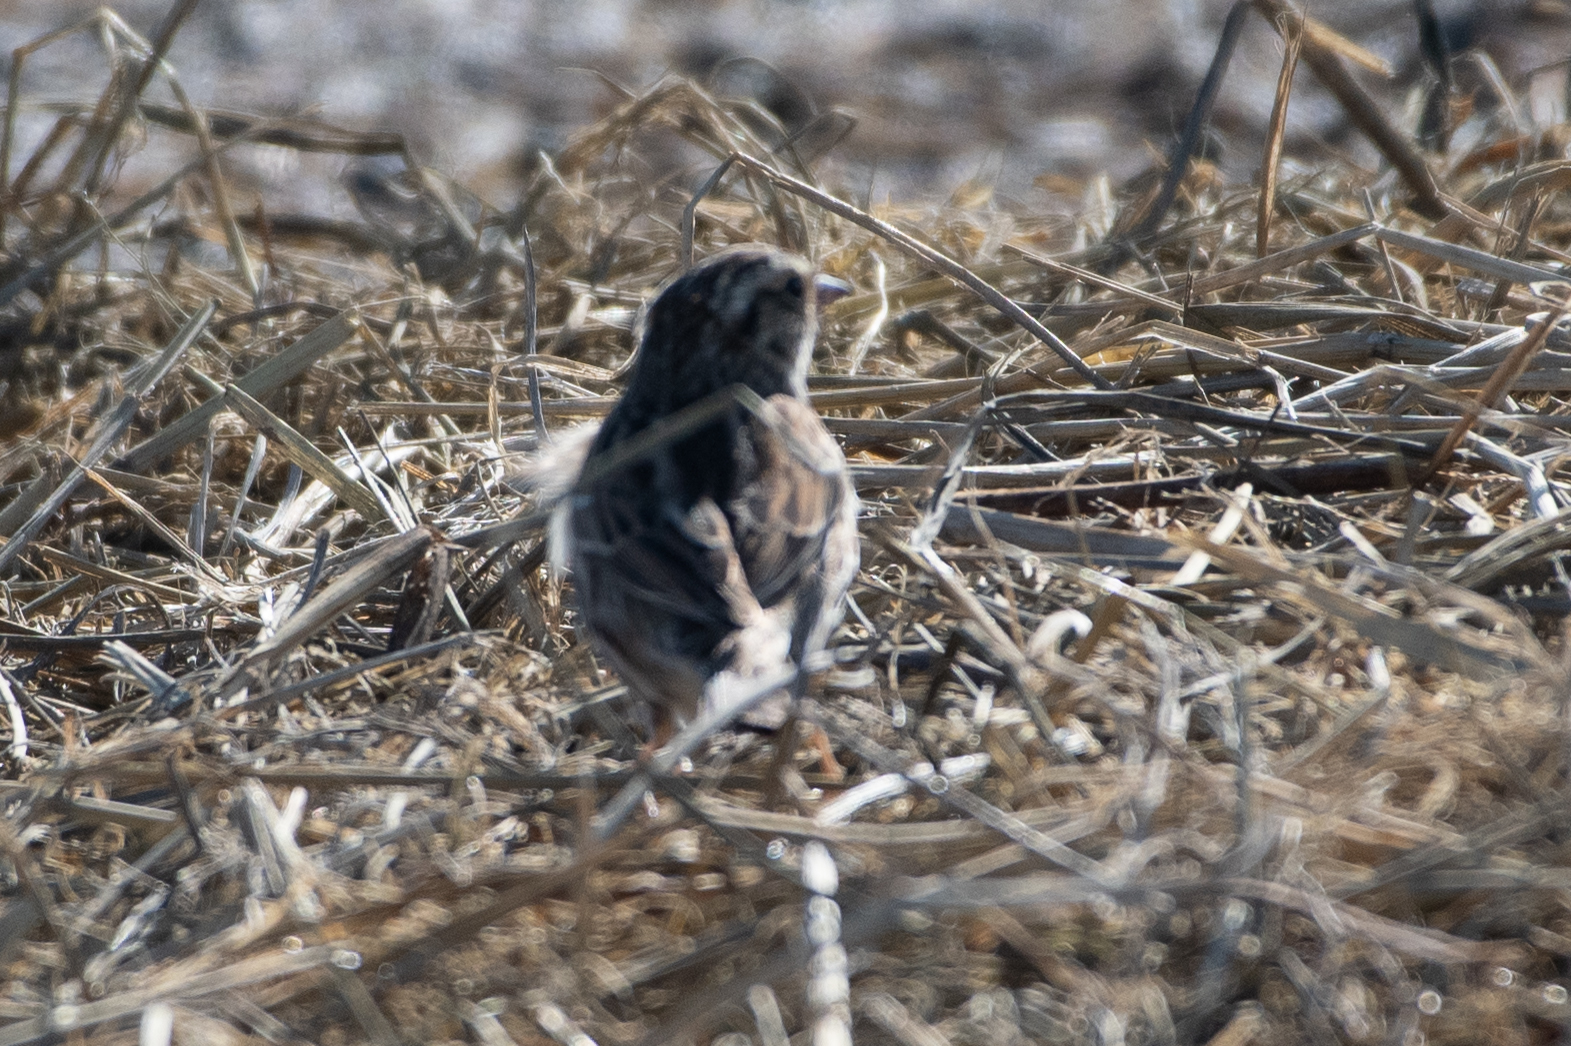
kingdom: Animalia
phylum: Chordata
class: Aves
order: Passeriformes
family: Passerellidae
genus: Passerculus
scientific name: Passerculus sandwichensis
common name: Savannah sparrow
